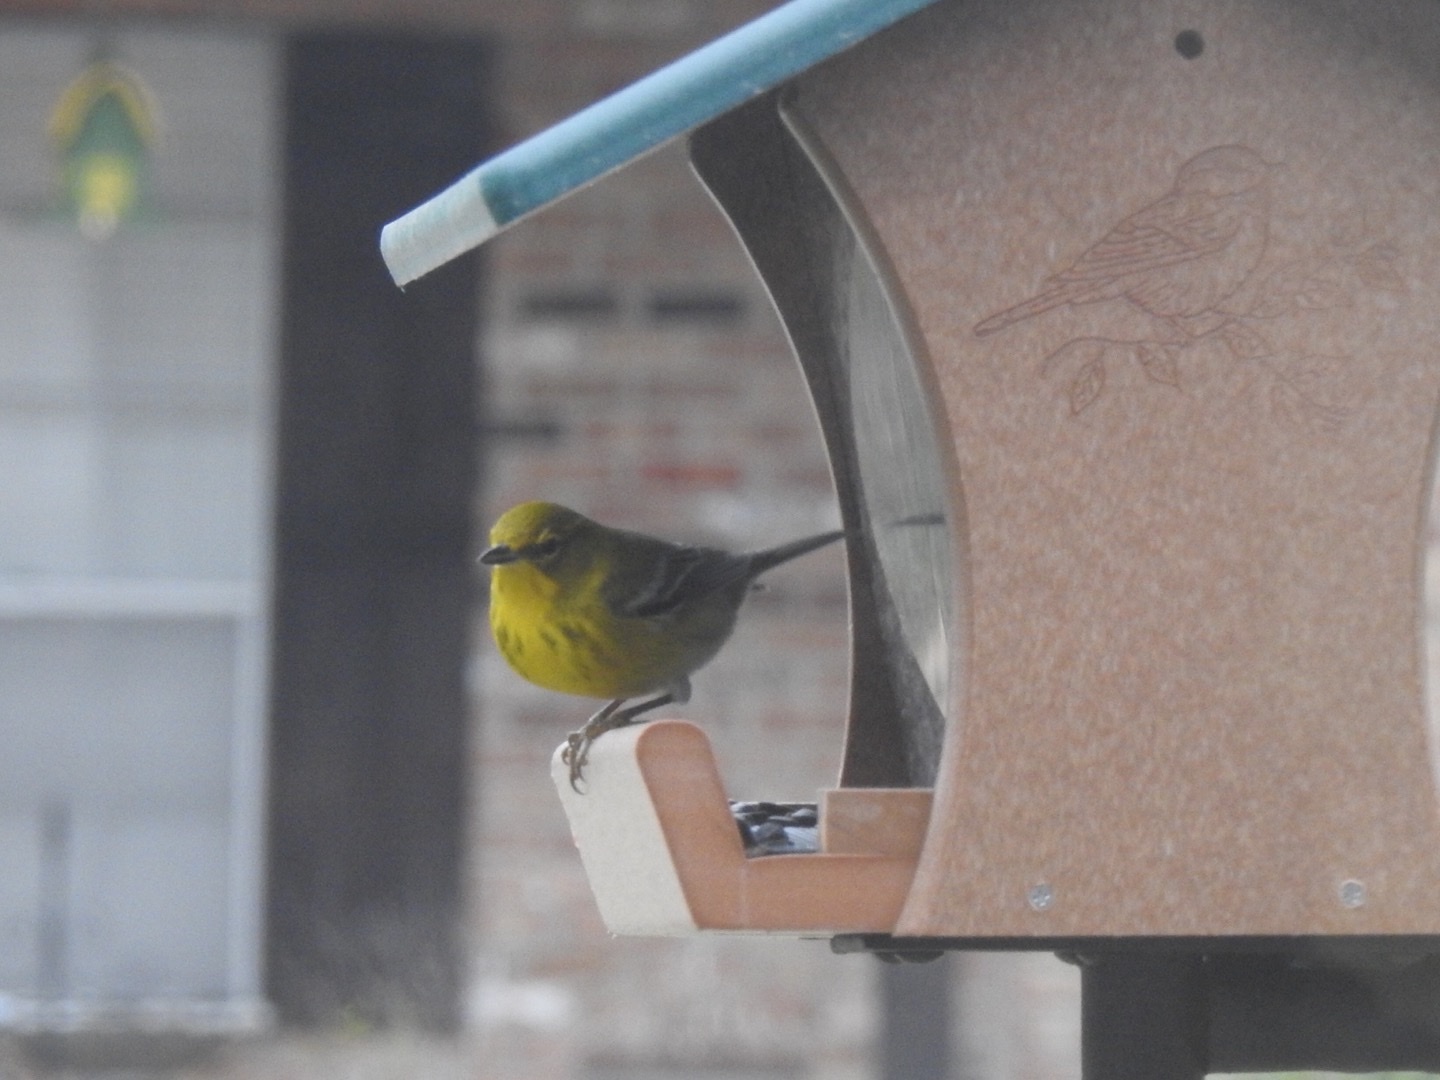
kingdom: Animalia
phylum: Chordata
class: Aves
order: Passeriformes
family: Parulidae
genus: Setophaga
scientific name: Setophaga pinus
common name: Pine warbler
